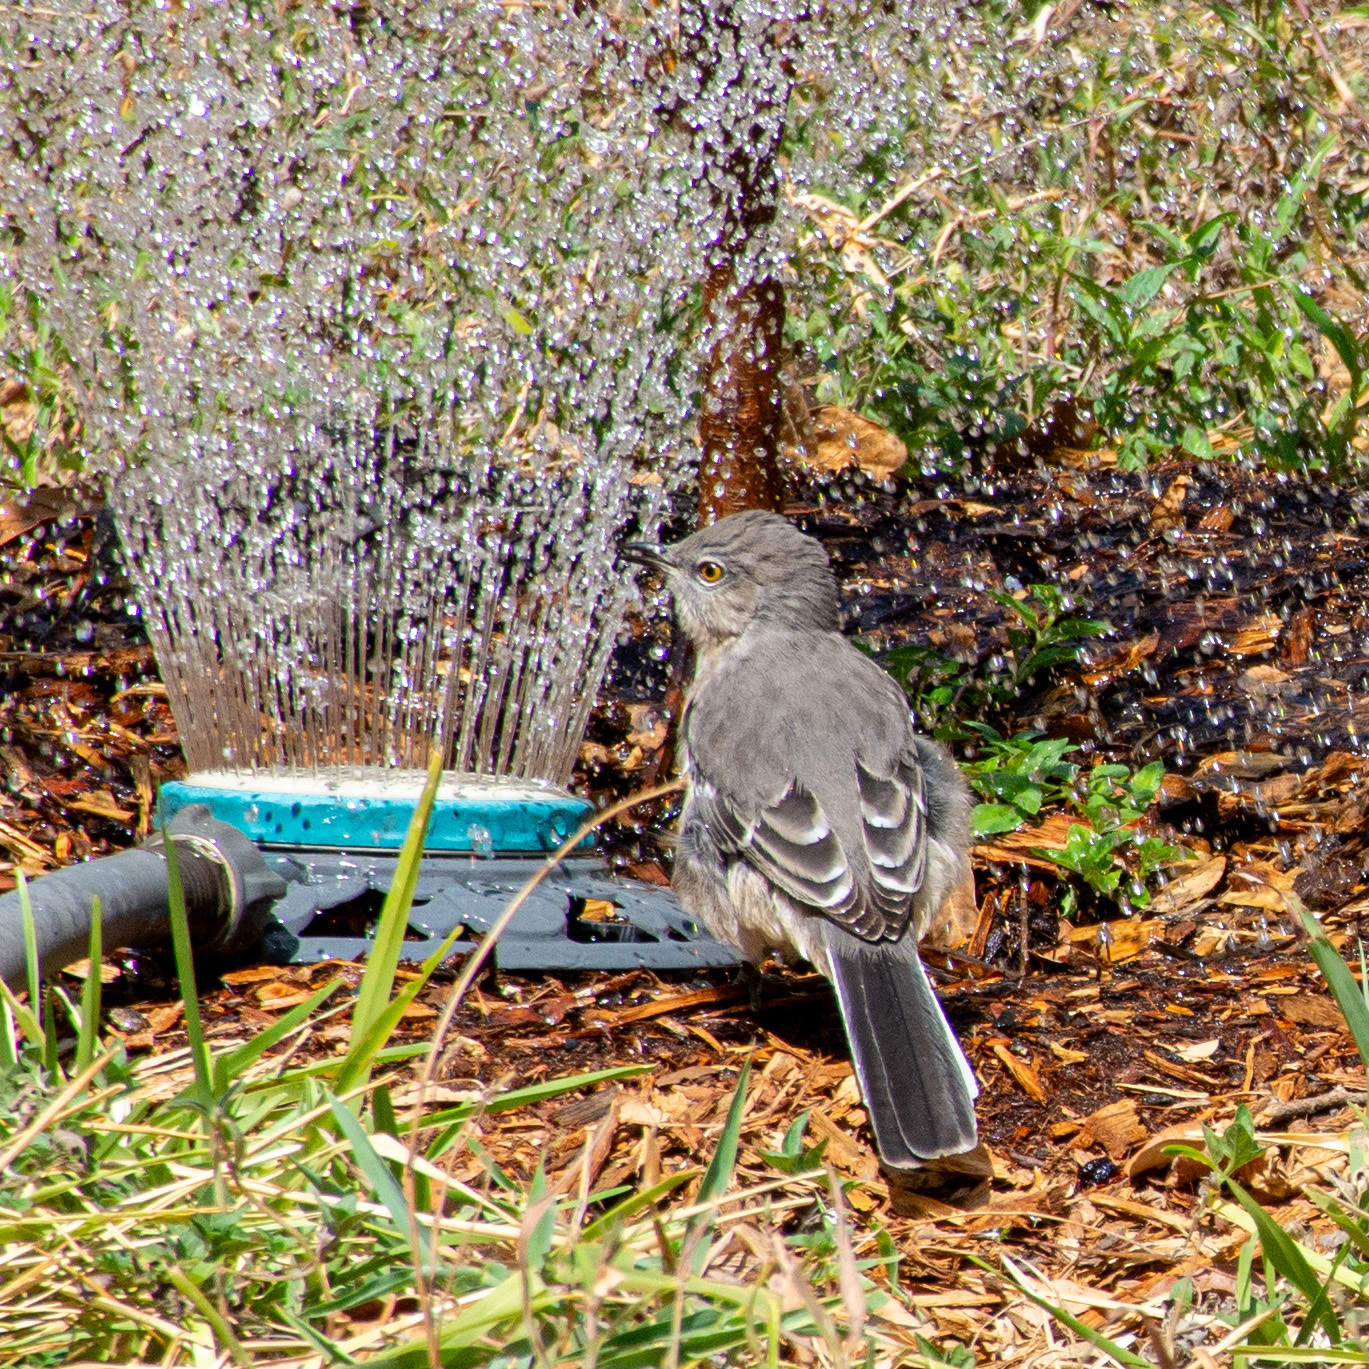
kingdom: Animalia
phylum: Chordata
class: Aves
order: Passeriformes
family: Mimidae
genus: Mimus
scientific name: Mimus polyglottos
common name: Northern mockingbird
